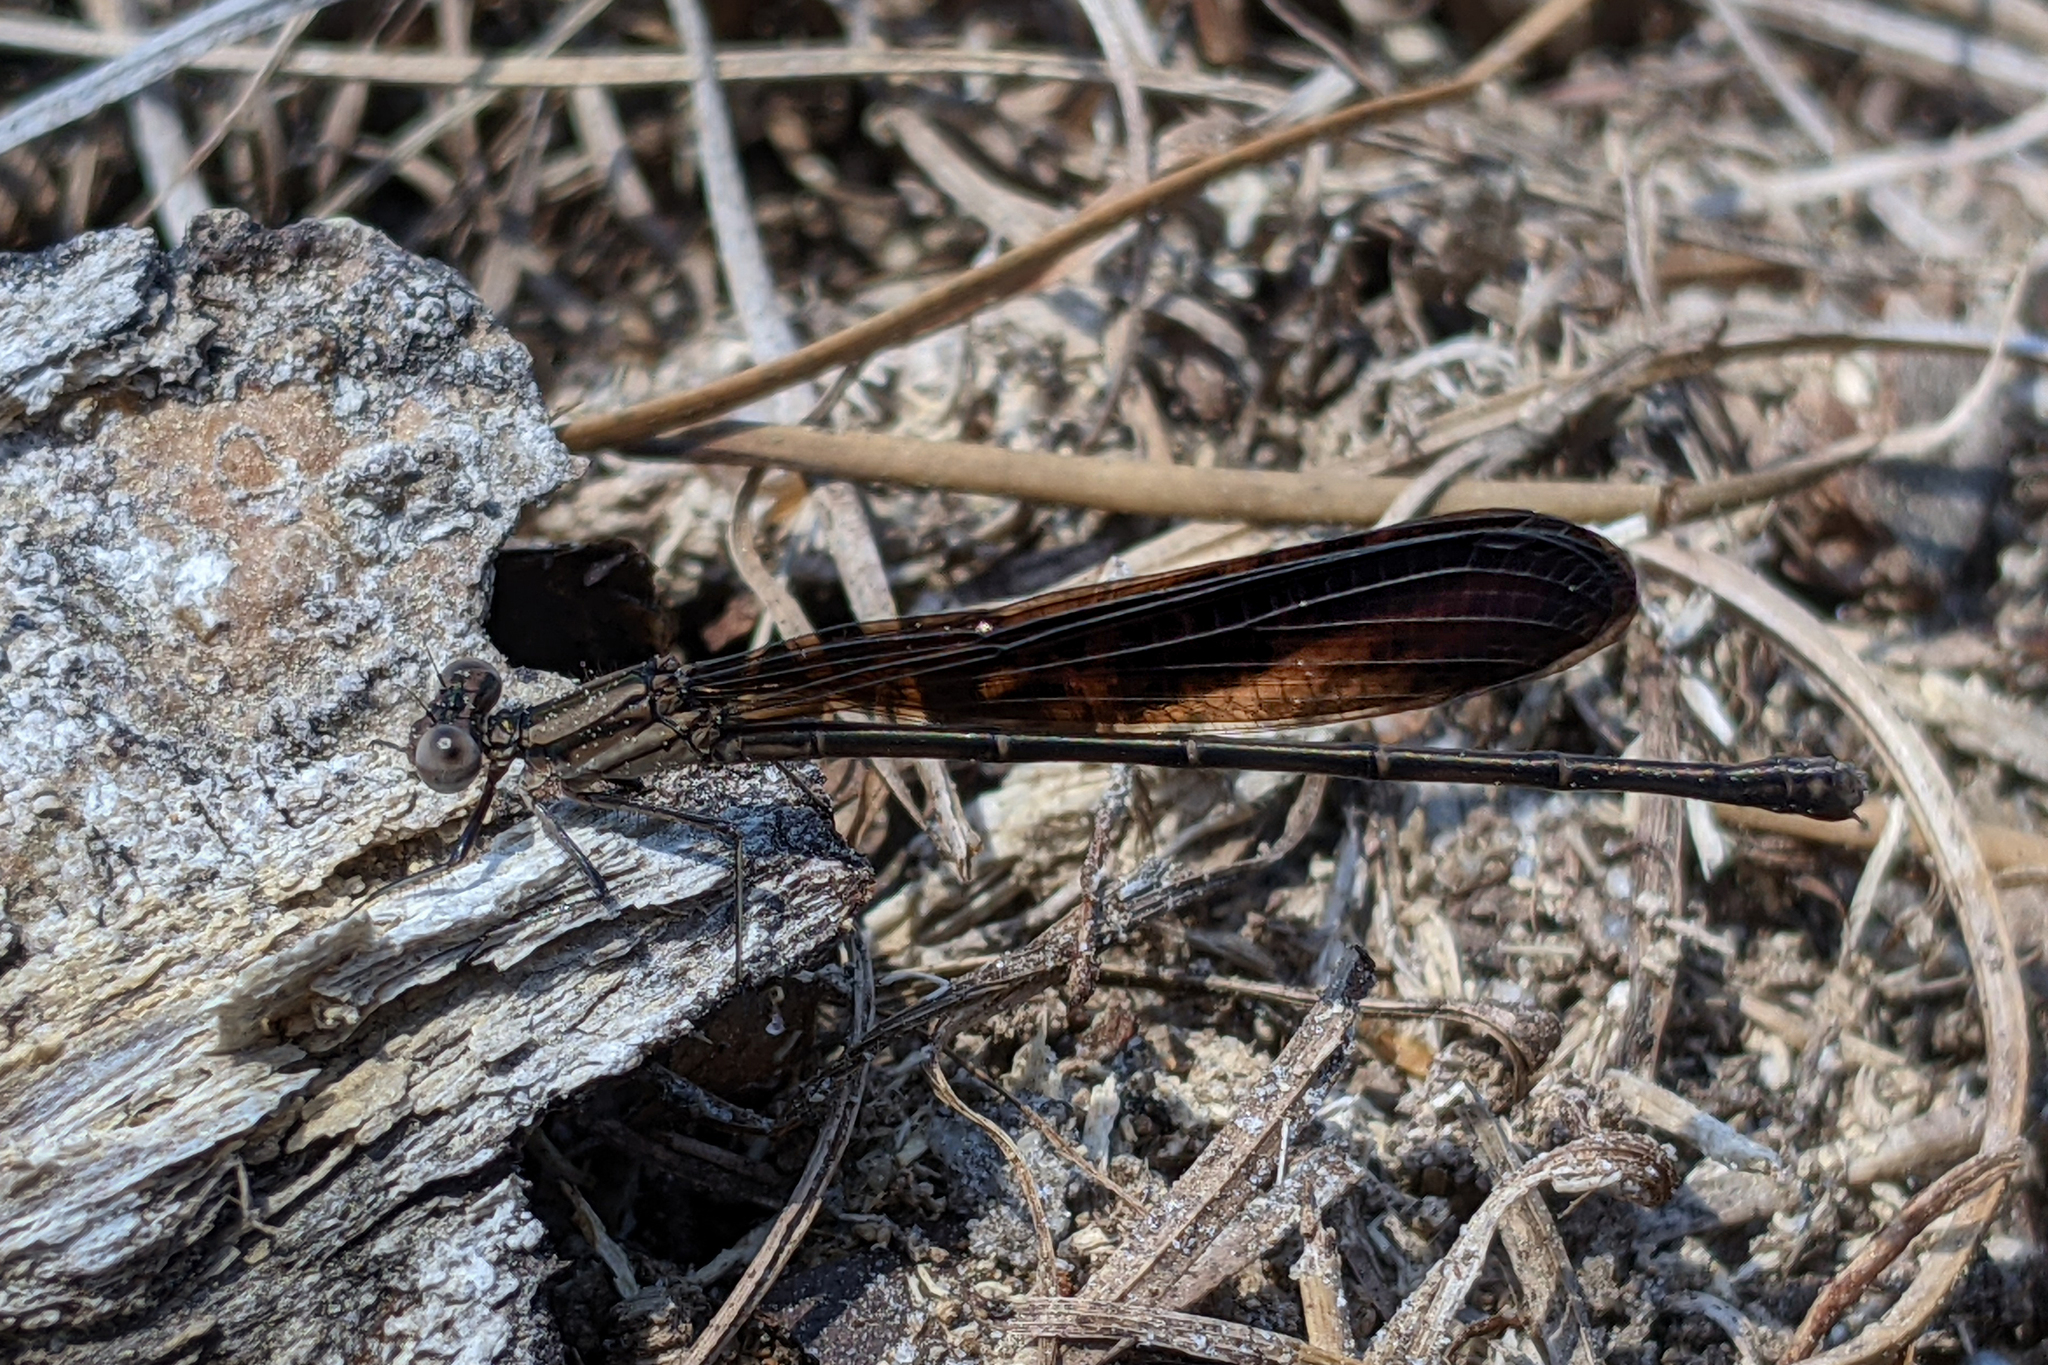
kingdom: Animalia
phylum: Arthropoda
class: Insecta
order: Odonata
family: Coenagrionidae
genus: Argia
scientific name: Argia fumipennis
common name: Variable dancer
